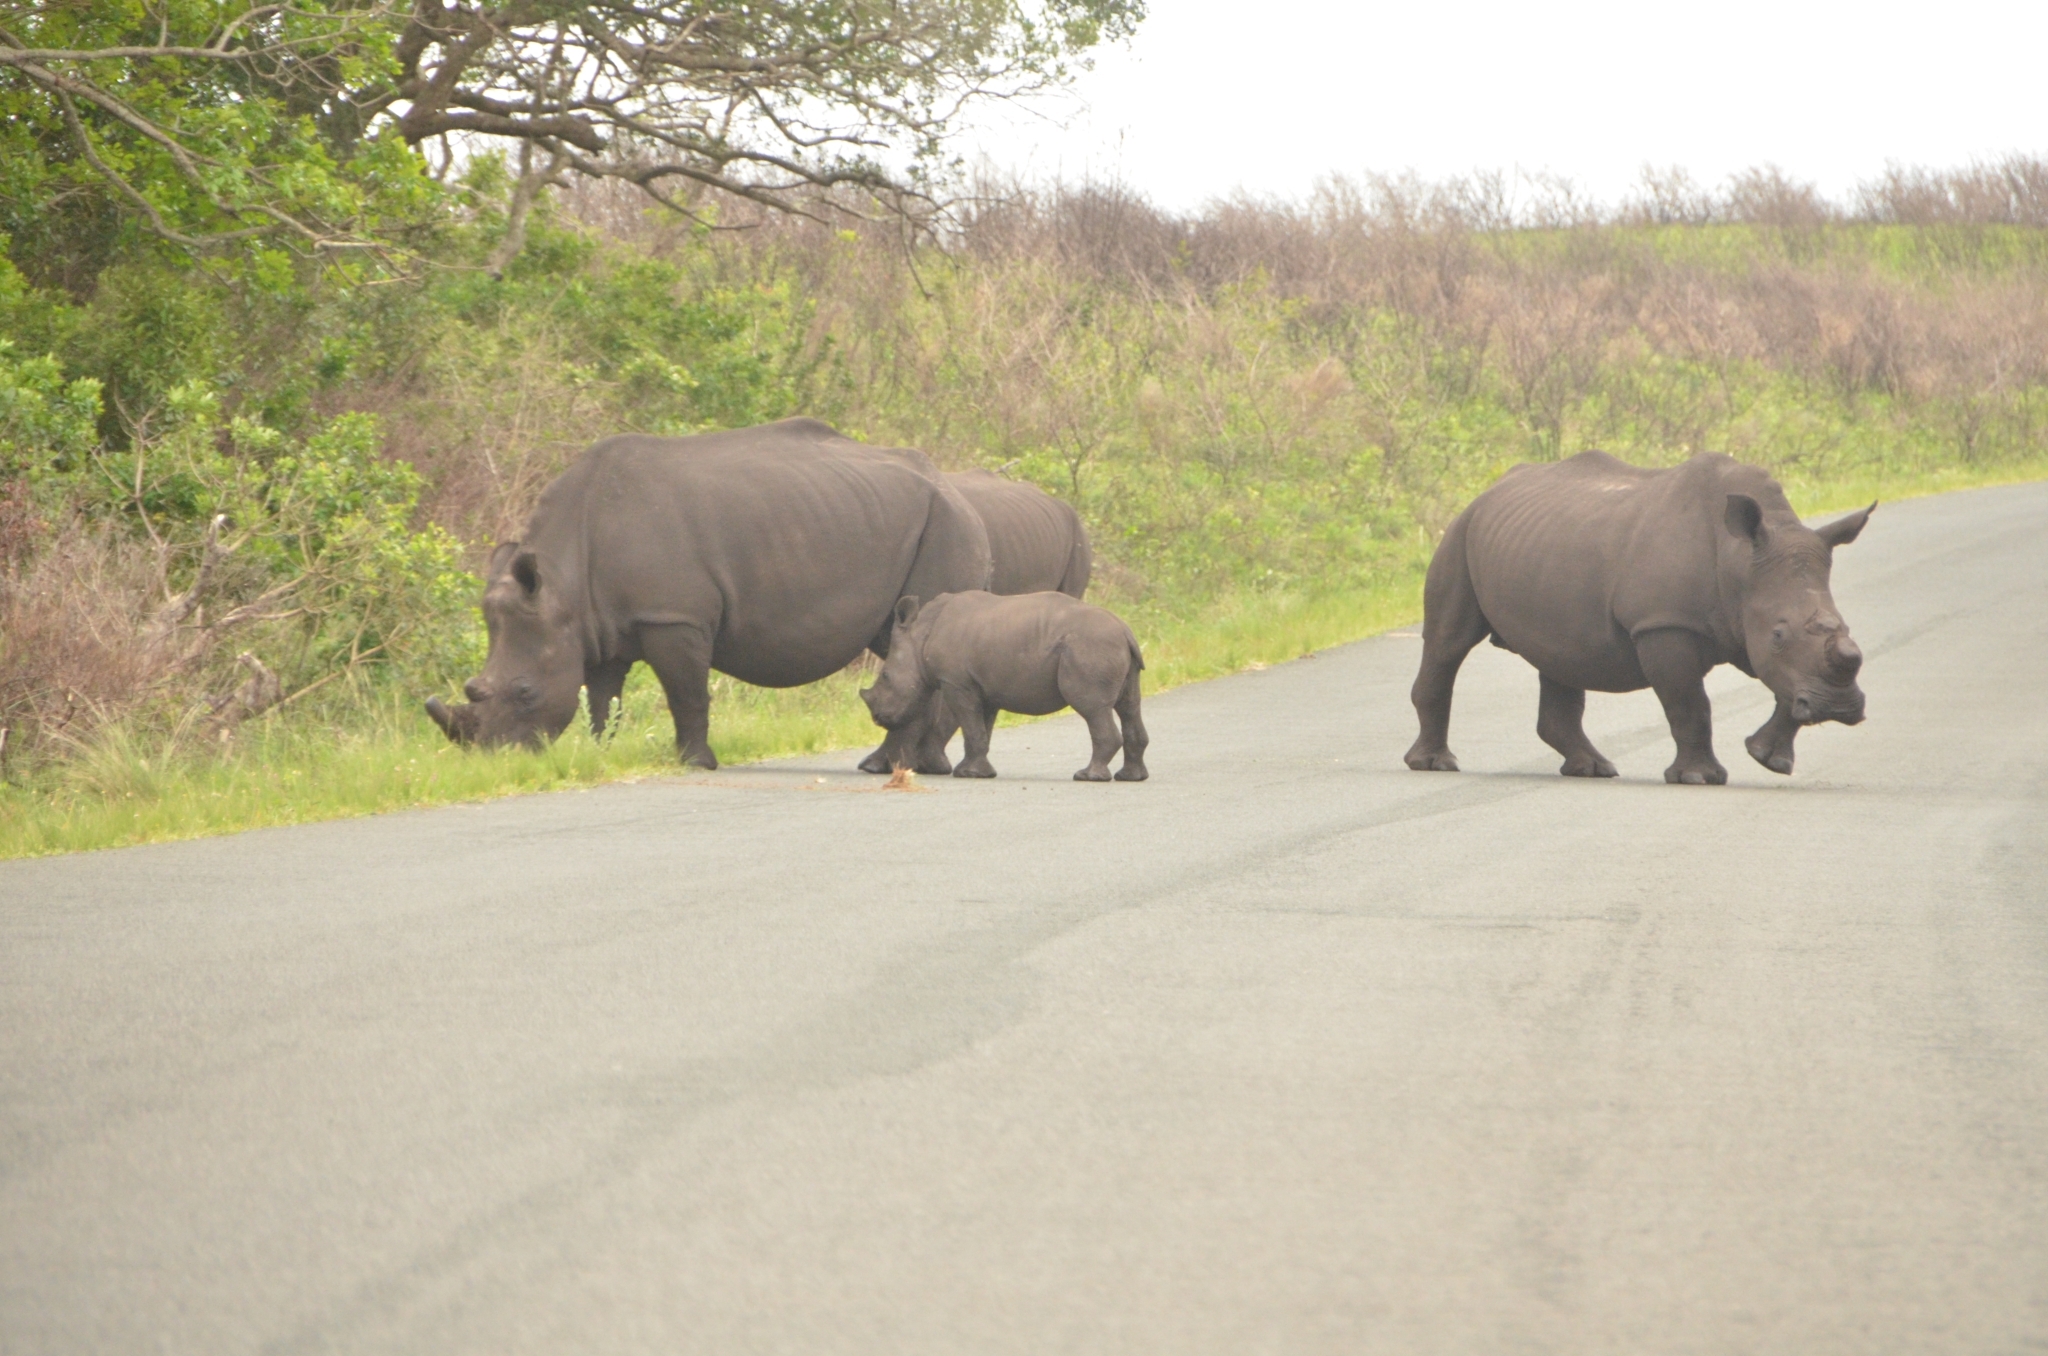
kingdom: Animalia
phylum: Chordata
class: Mammalia
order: Perissodactyla
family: Rhinocerotidae
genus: Ceratotherium
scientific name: Ceratotherium simum
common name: White rhinoceros
